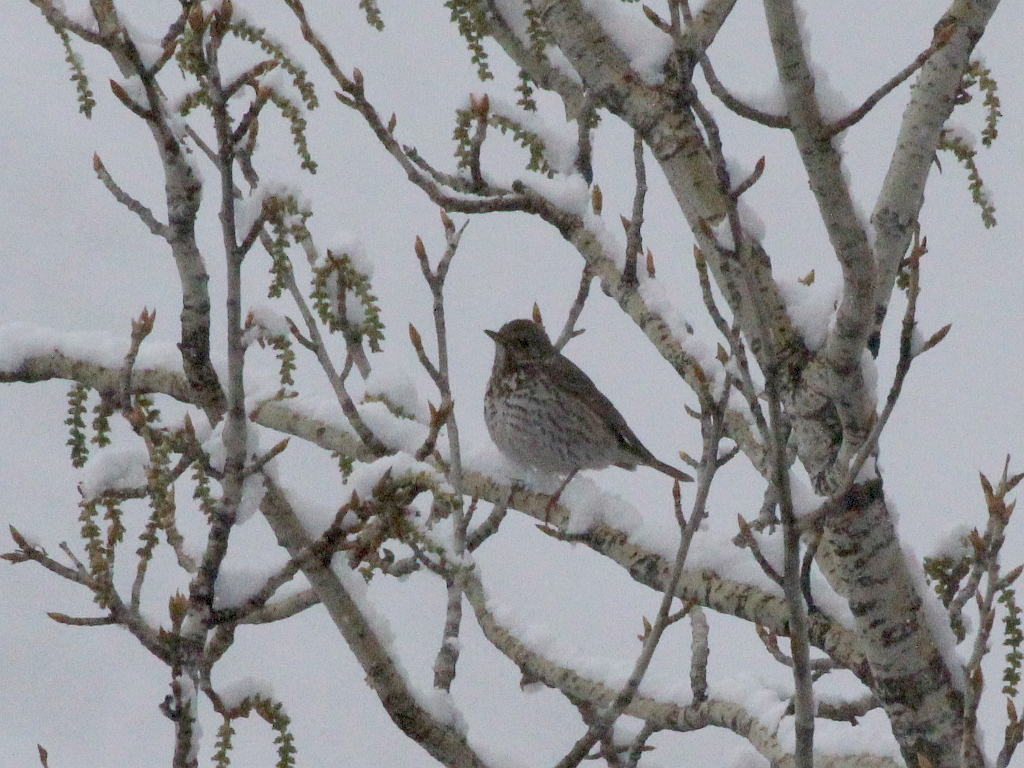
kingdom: Animalia
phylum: Chordata
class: Aves
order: Passeriformes
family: Turdidae
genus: Turdus
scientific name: Turdus philomelos
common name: Song thrush
